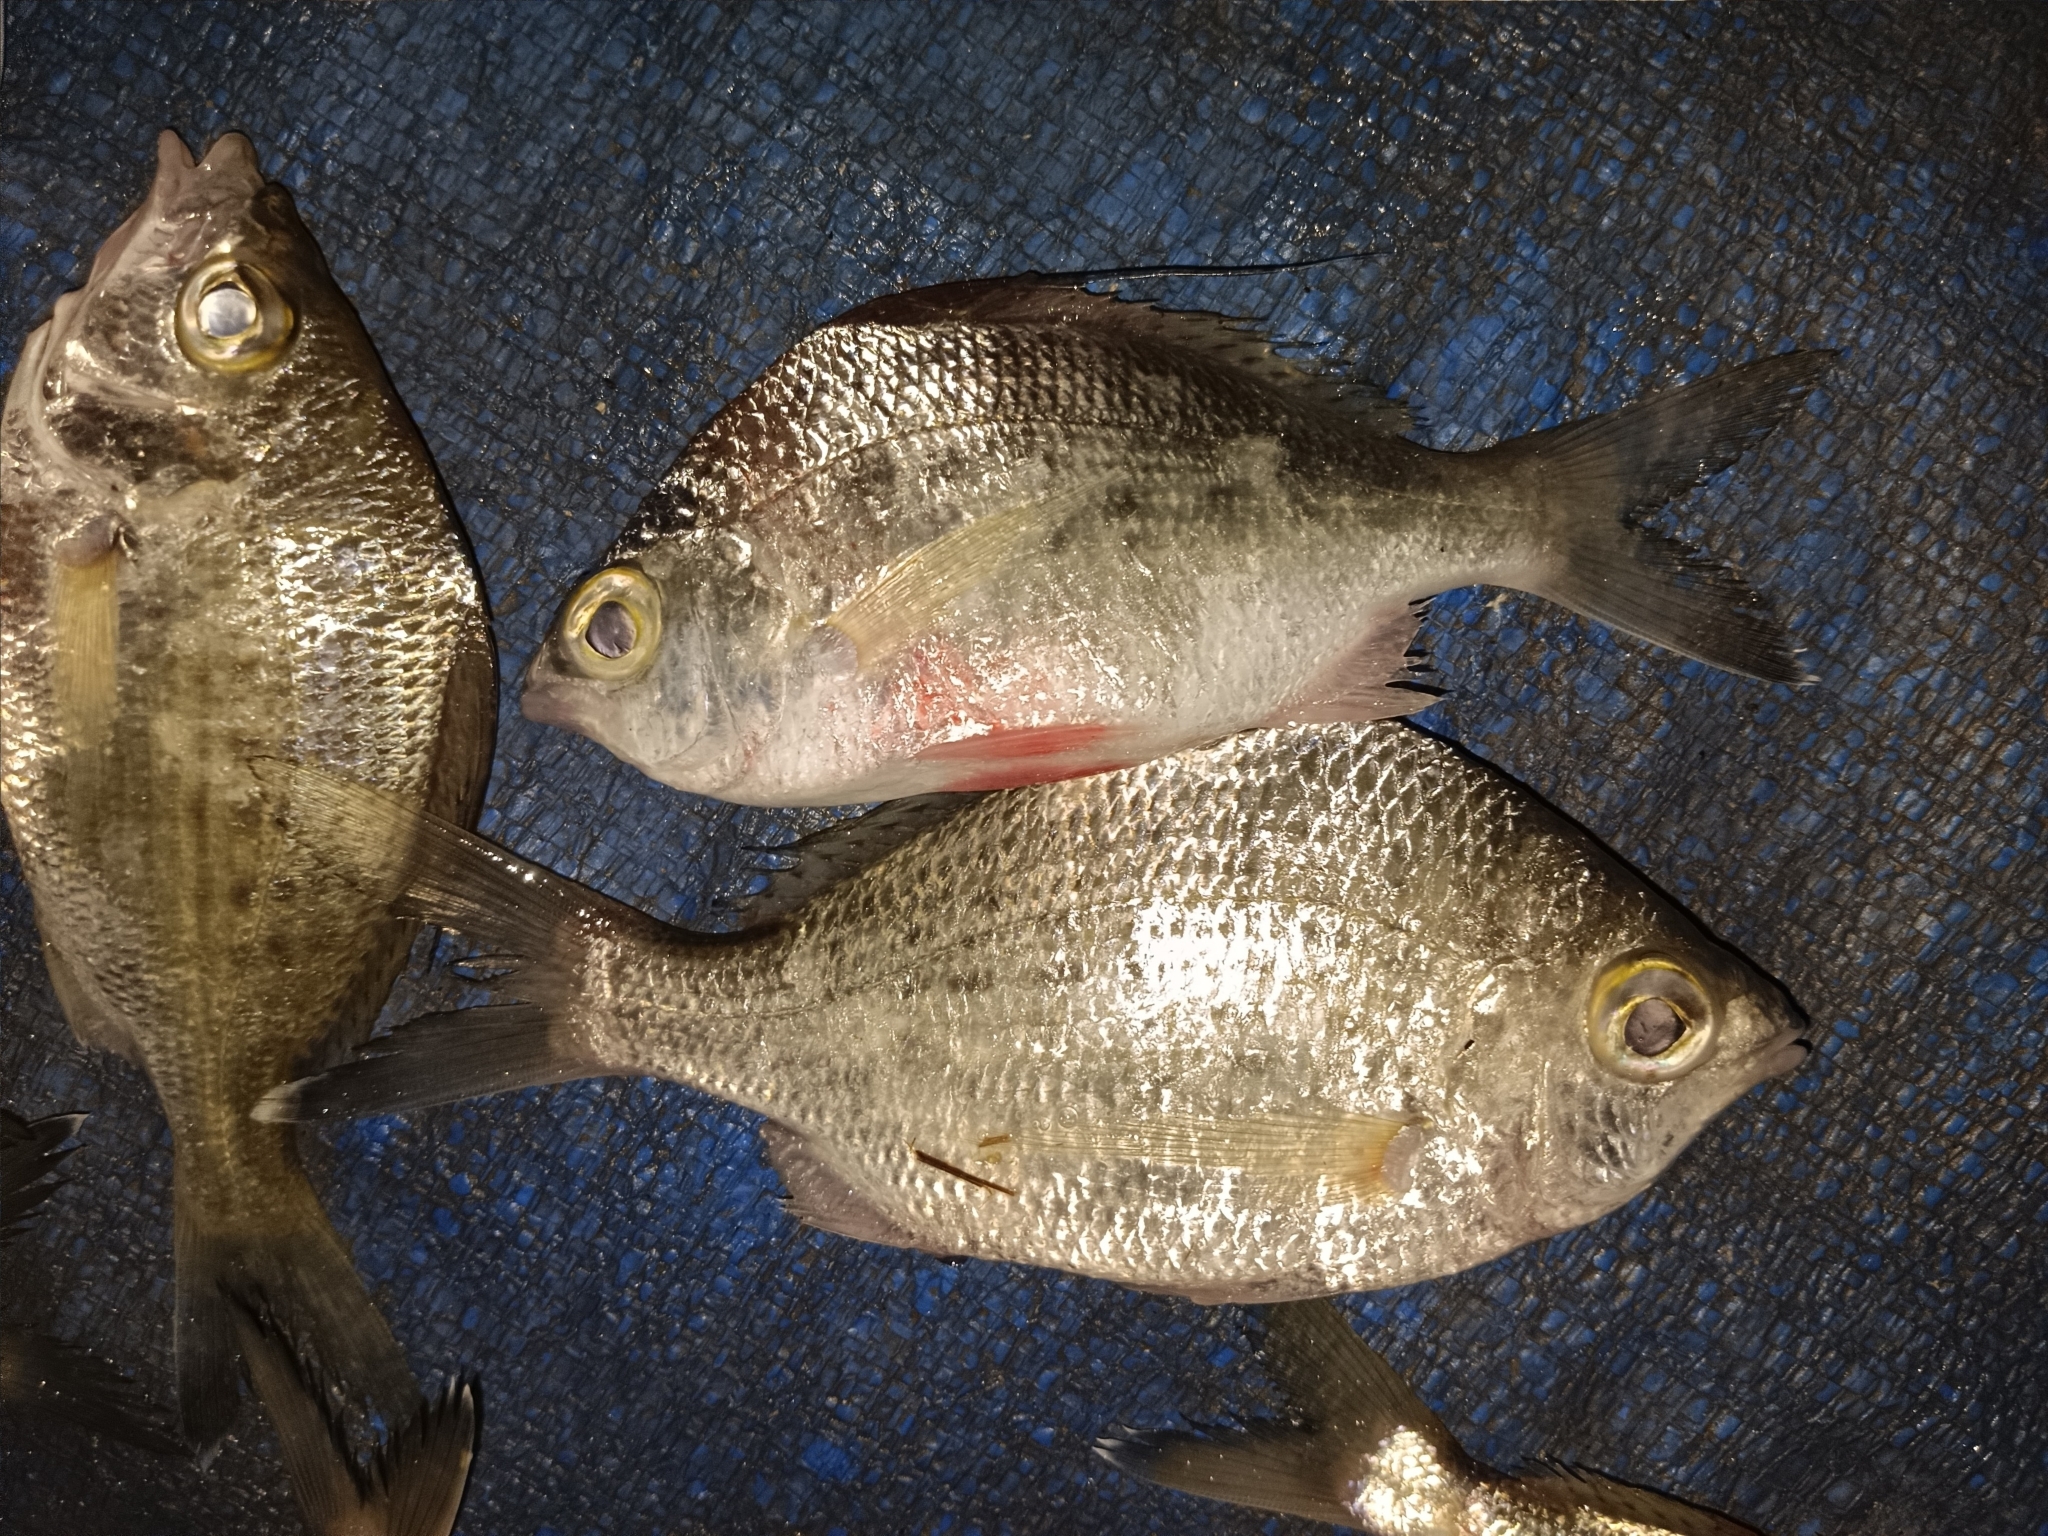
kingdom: Animalia
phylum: Chordata
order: Perciformes
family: Gerreidae
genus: Gerres
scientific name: Gerres filamentosus
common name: Whipfin silverbiddy
